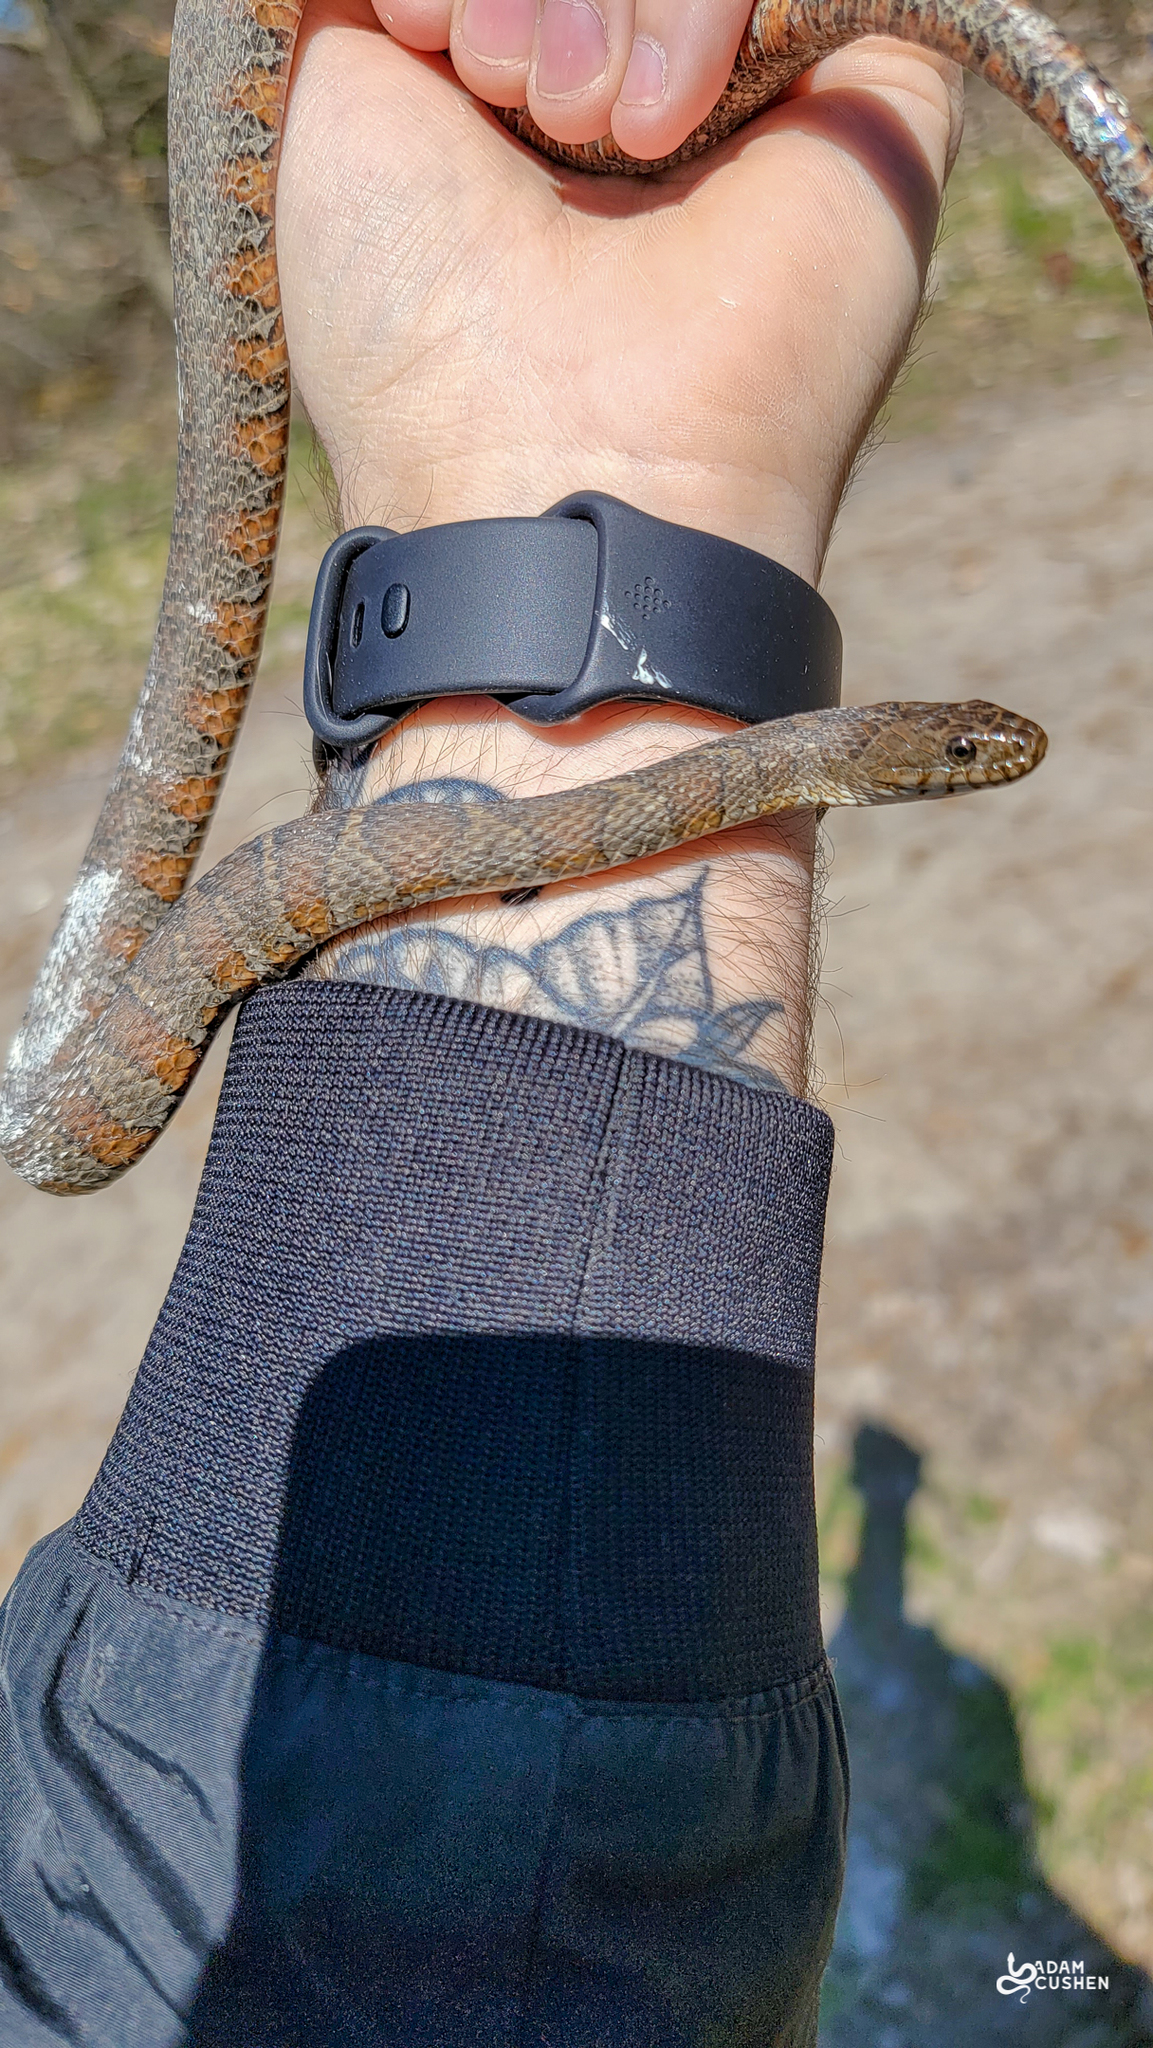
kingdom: Animalia
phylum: Chordata
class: Squamata
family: Colubridae
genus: Nerodia
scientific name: Nerodia sipedon
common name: Northern water snake
